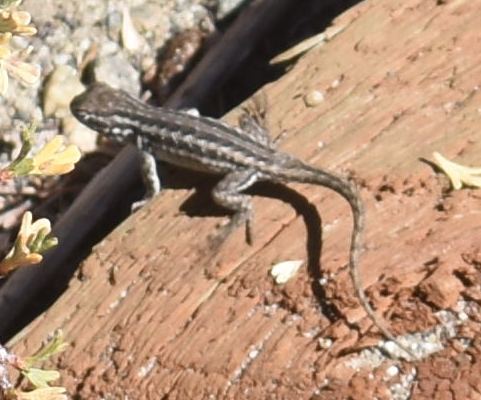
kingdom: Animalia
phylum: Chordata
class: Squamata
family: Phrynosomatidae
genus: Sceloporus
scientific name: Sceloporus graciosus
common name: Sagebrush lizard
